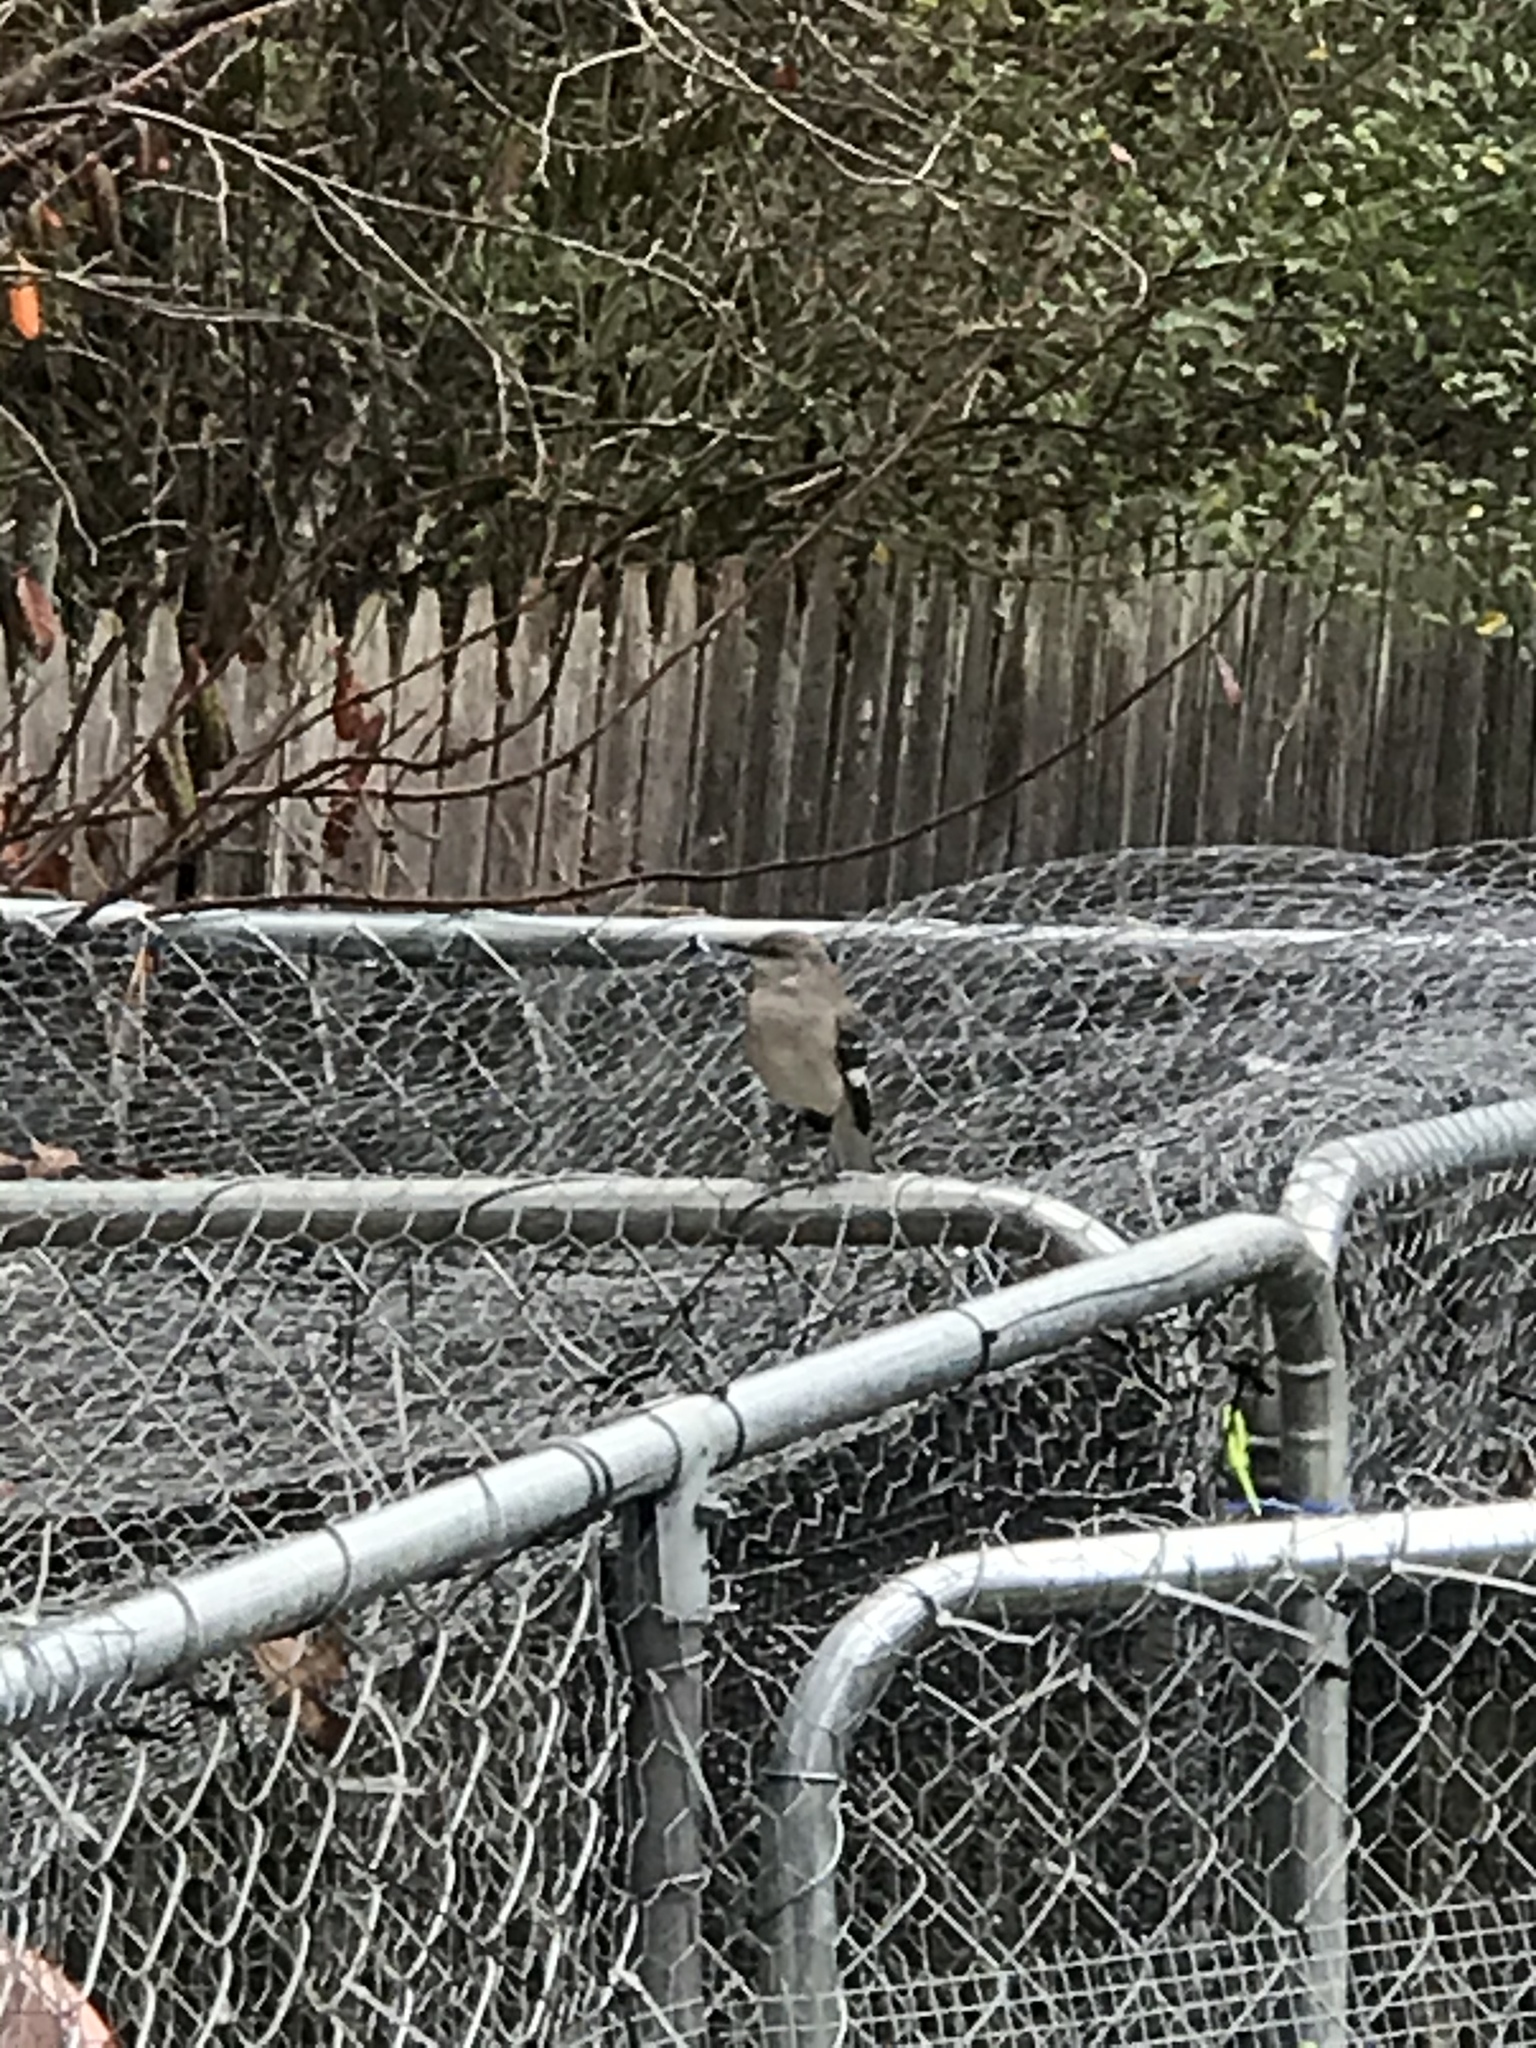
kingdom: Animalia
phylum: Chordata
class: Aves
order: Passeriformes
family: Mimidae
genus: Mimus
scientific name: Mimus polyglottos
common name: Northern mockingbird
